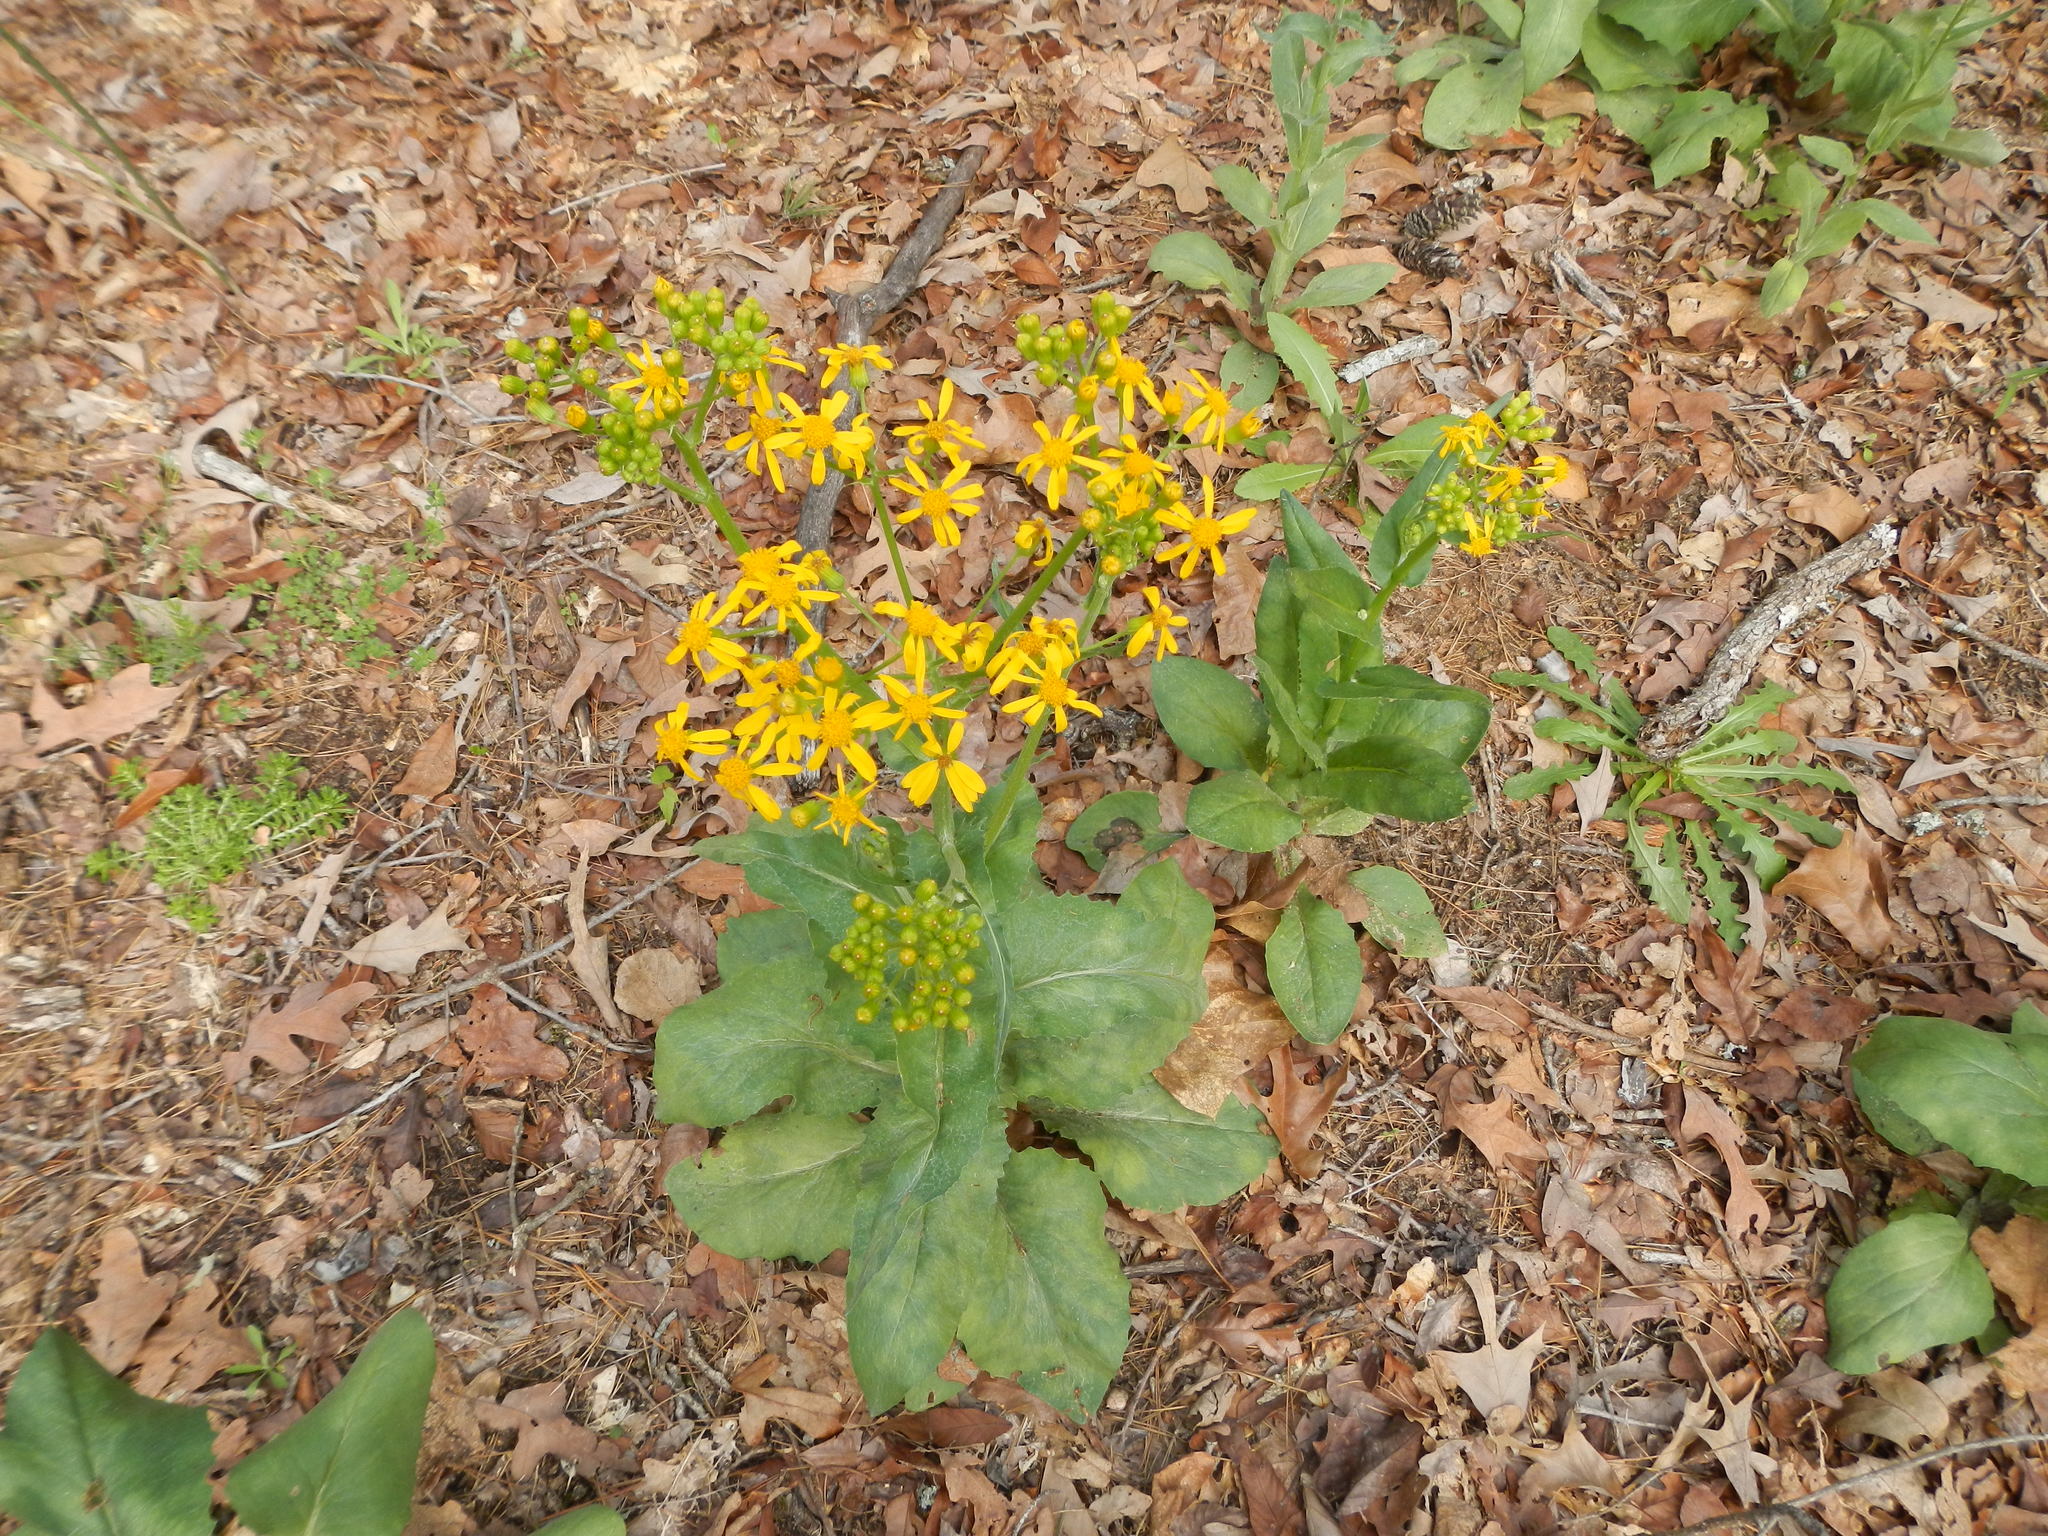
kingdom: Plantae
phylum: Tracheophyta
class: Magnoliopsida
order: Asterales
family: Asteraceae
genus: Senecio
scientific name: Senecio ampullaceus
